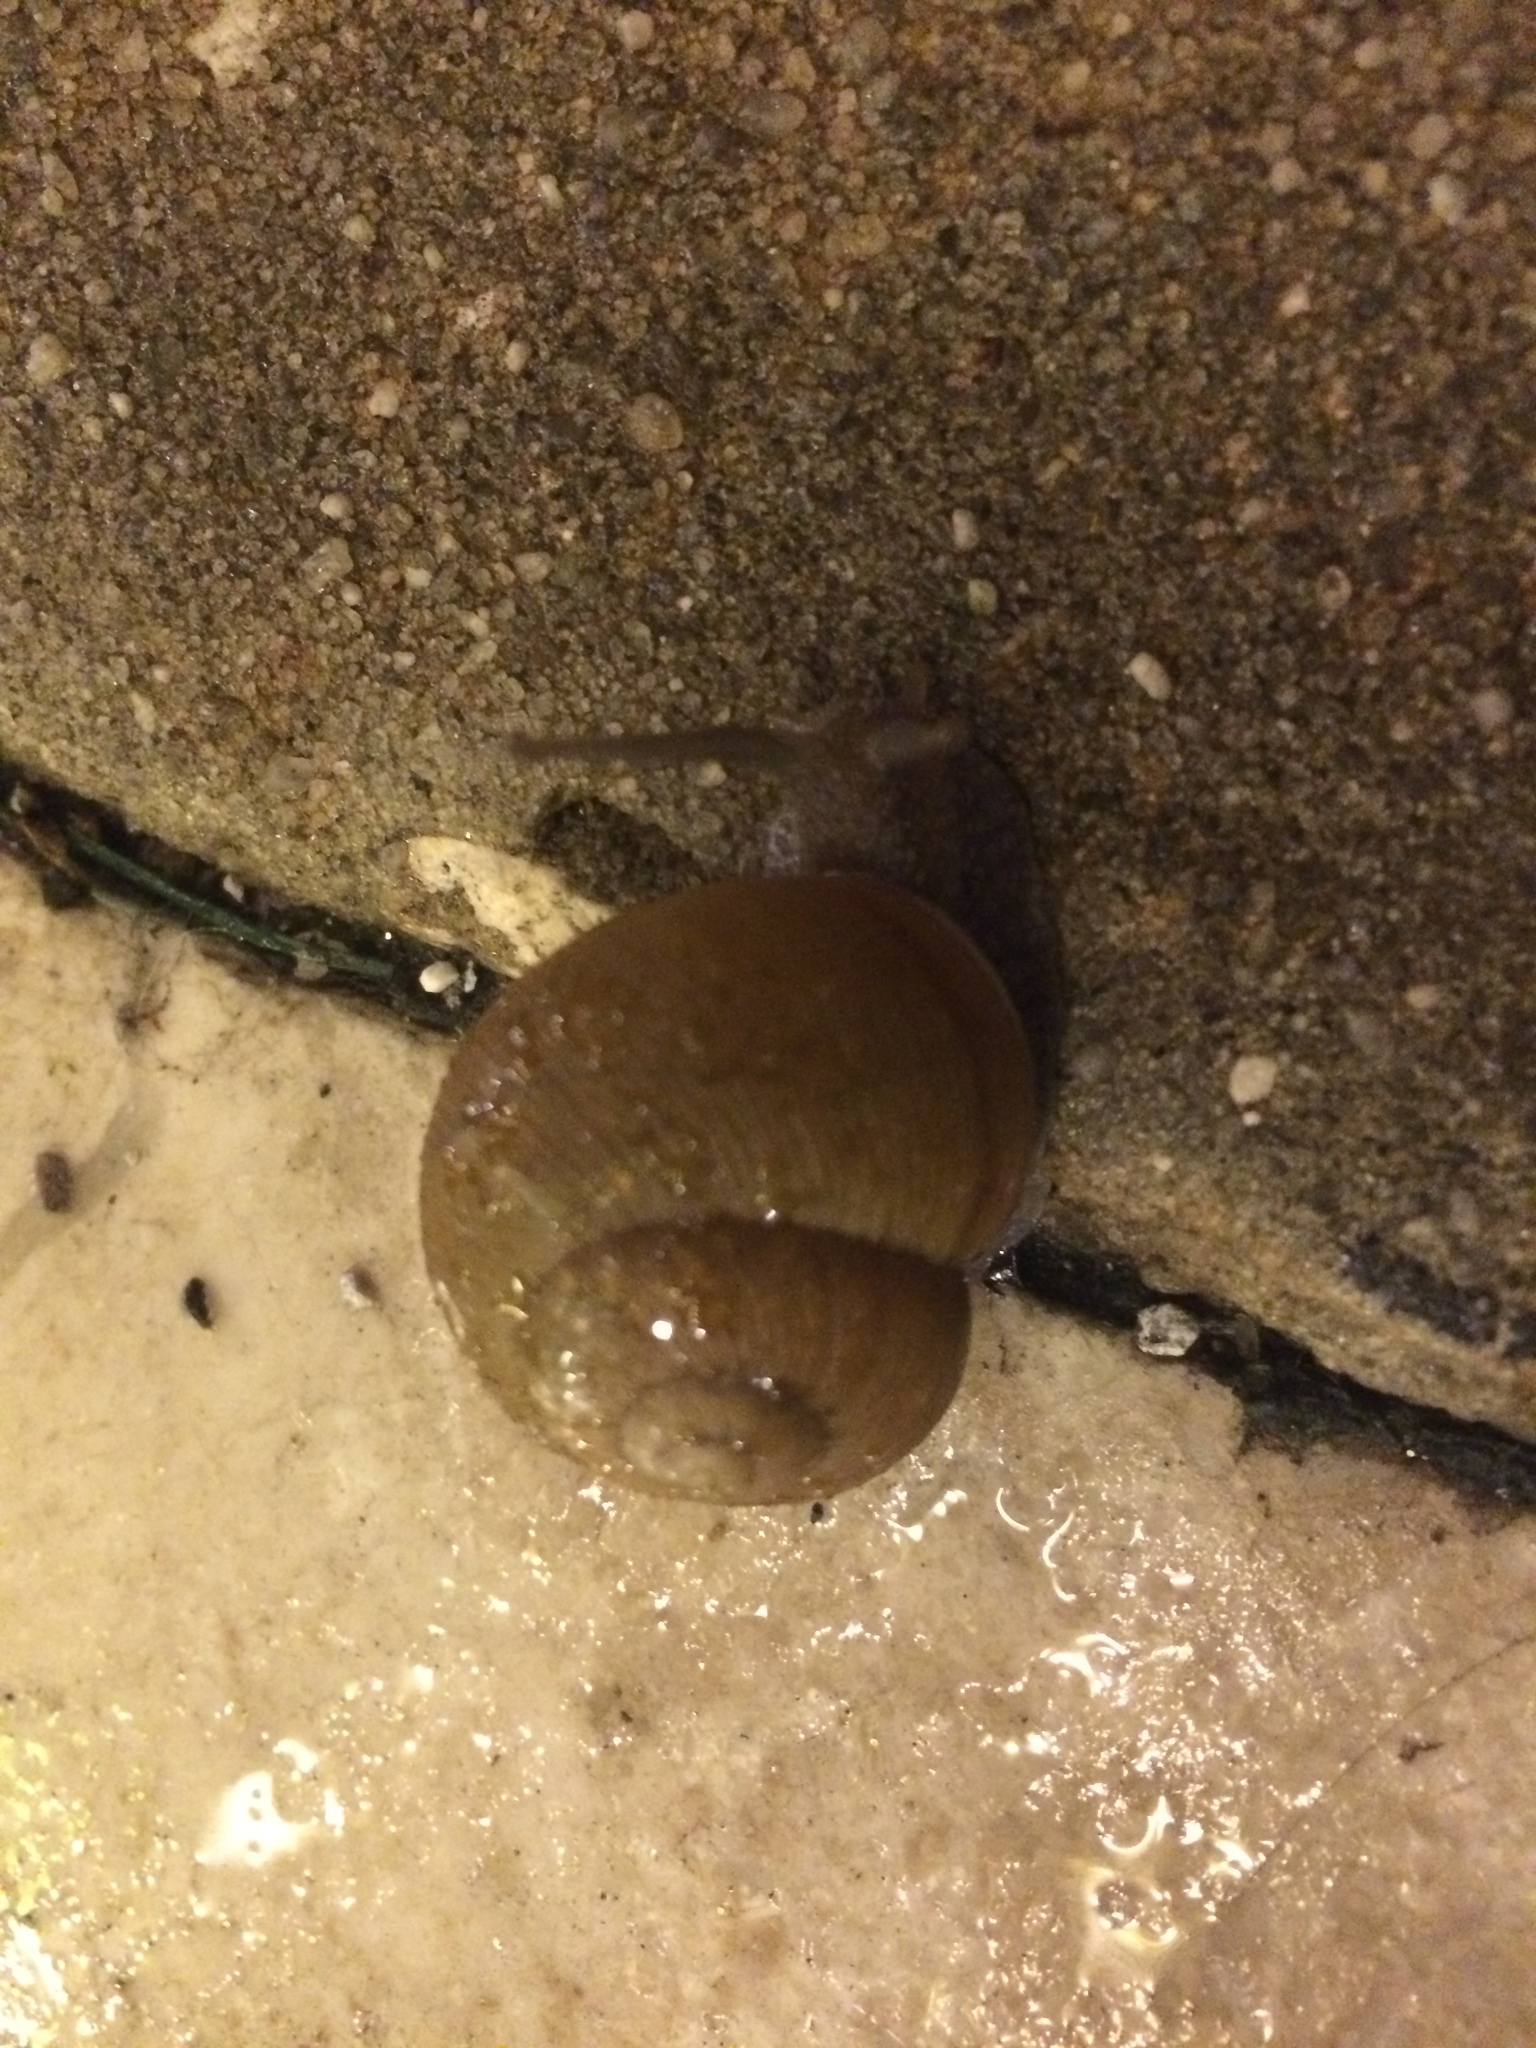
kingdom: Animalia
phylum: Mollusca
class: Gastropoda
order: Stylommatophora
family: Zachrysiidae
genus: Zachrysia
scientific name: Zachrysia provisoria
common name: Garden zachrysia
